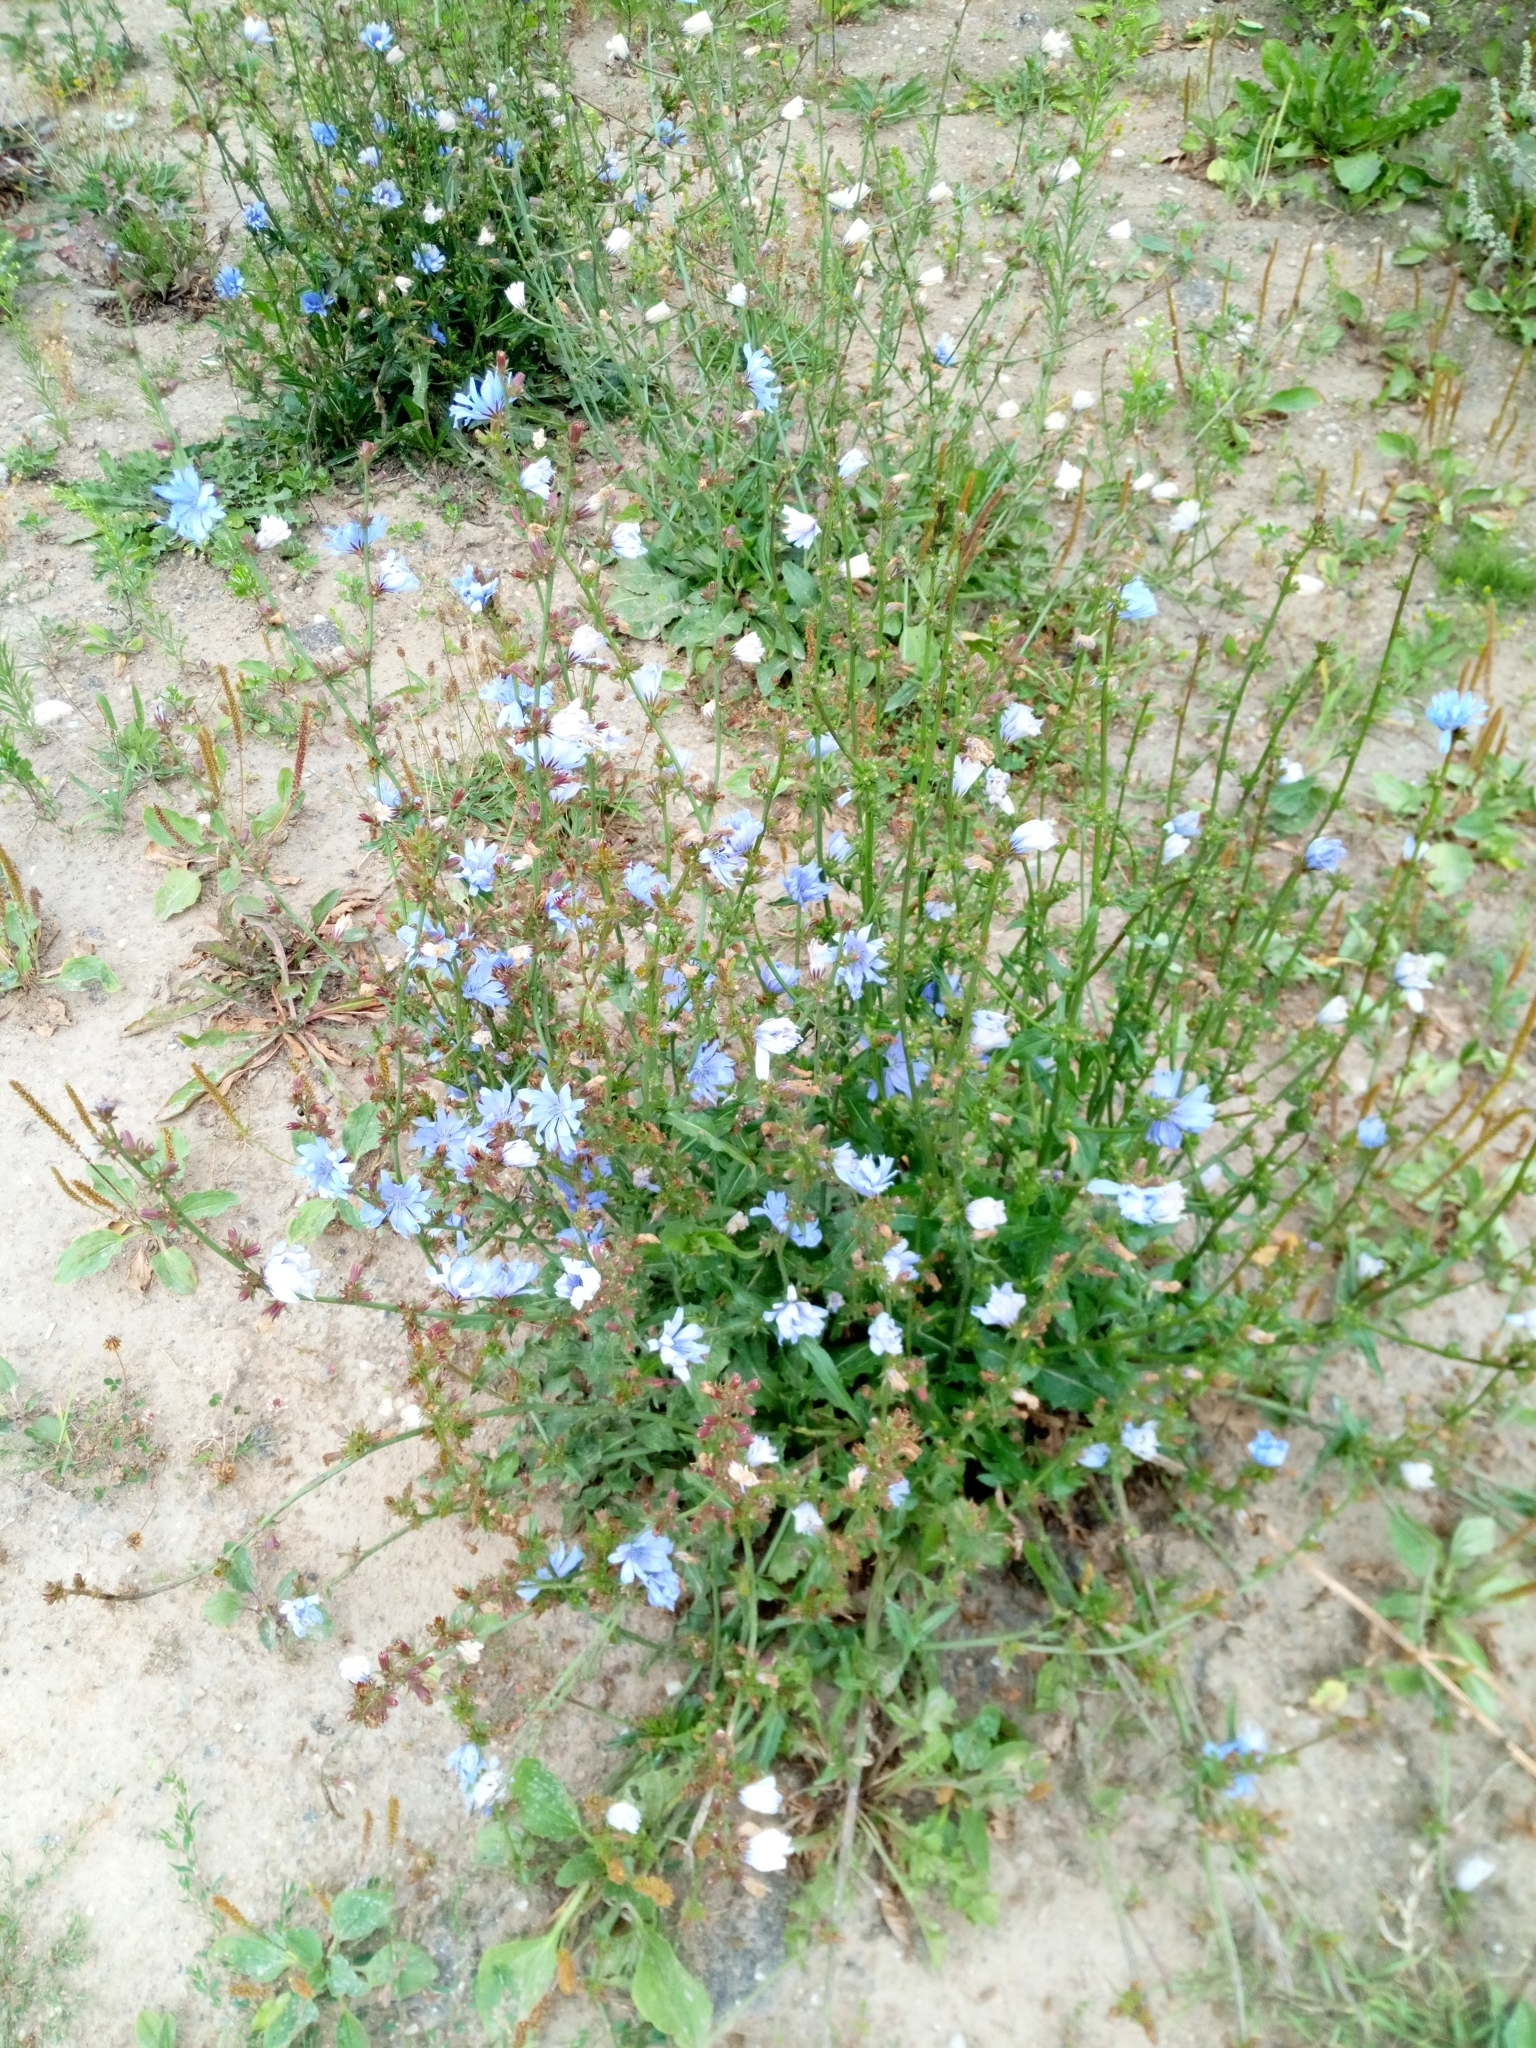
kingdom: Plantae
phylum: Tracheophyta
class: Magnoliopsida
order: Asterales
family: Asteraceae
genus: Cichorium
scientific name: Cichorium intybus
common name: Chicory
